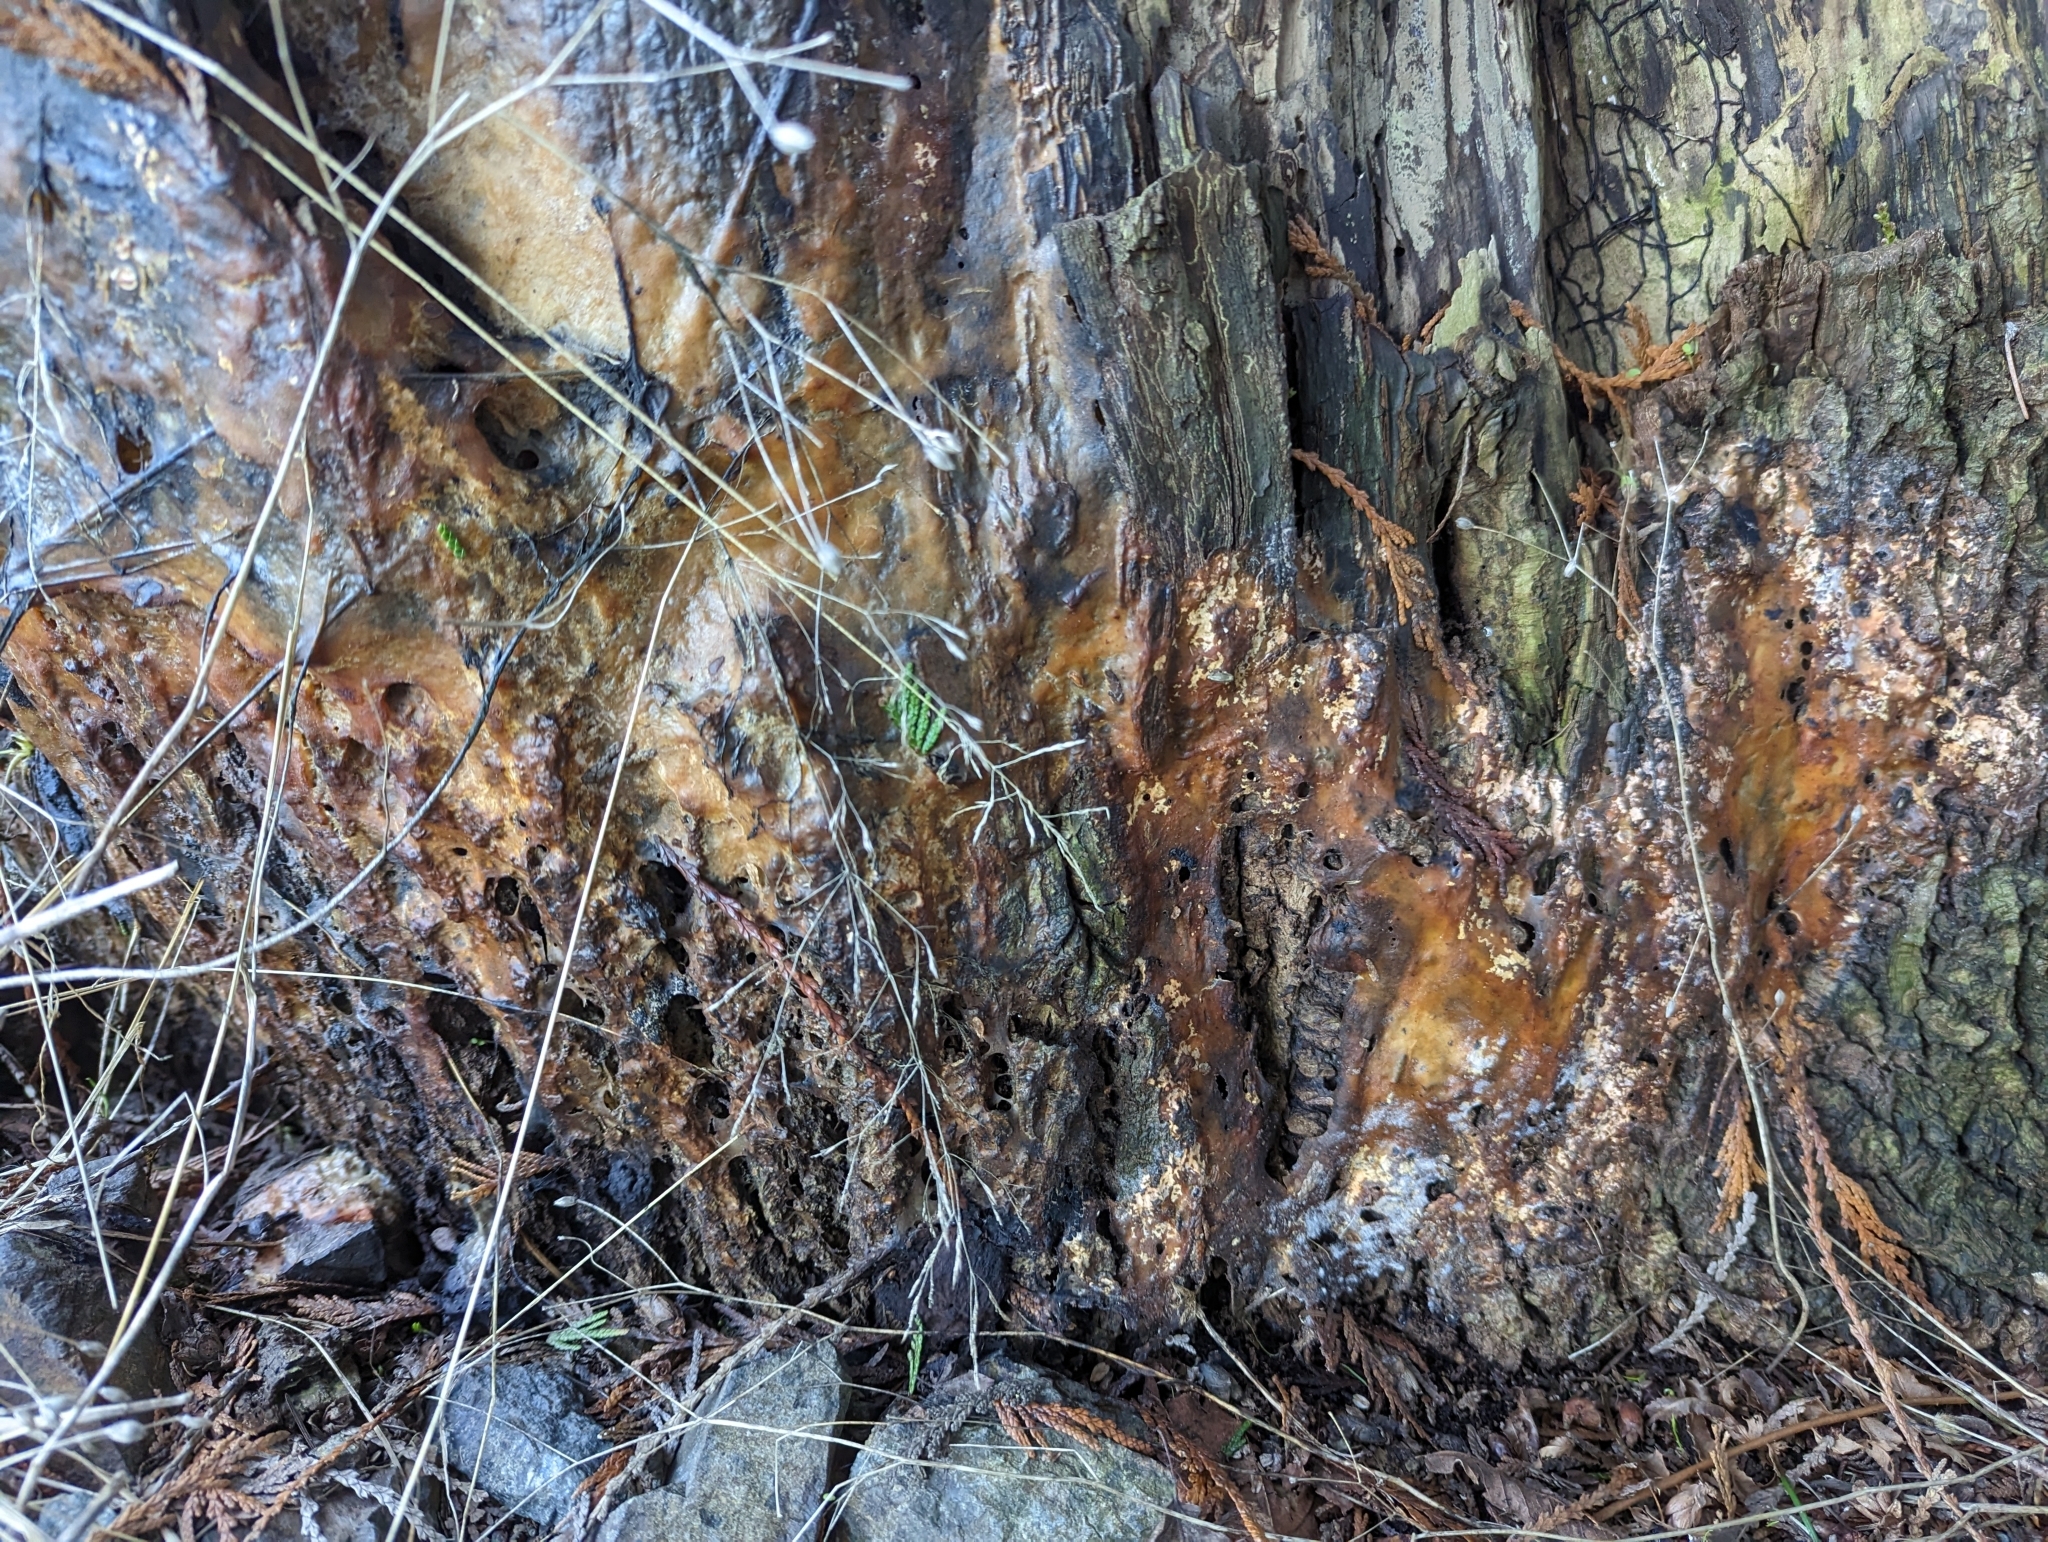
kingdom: Protozoa
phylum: Mycetozoa
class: Myxomycetes
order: Stemonitidales
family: Stemonitidaceae
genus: Brefeldia
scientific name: Brefeldia maxima
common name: Tapioca slime mold
